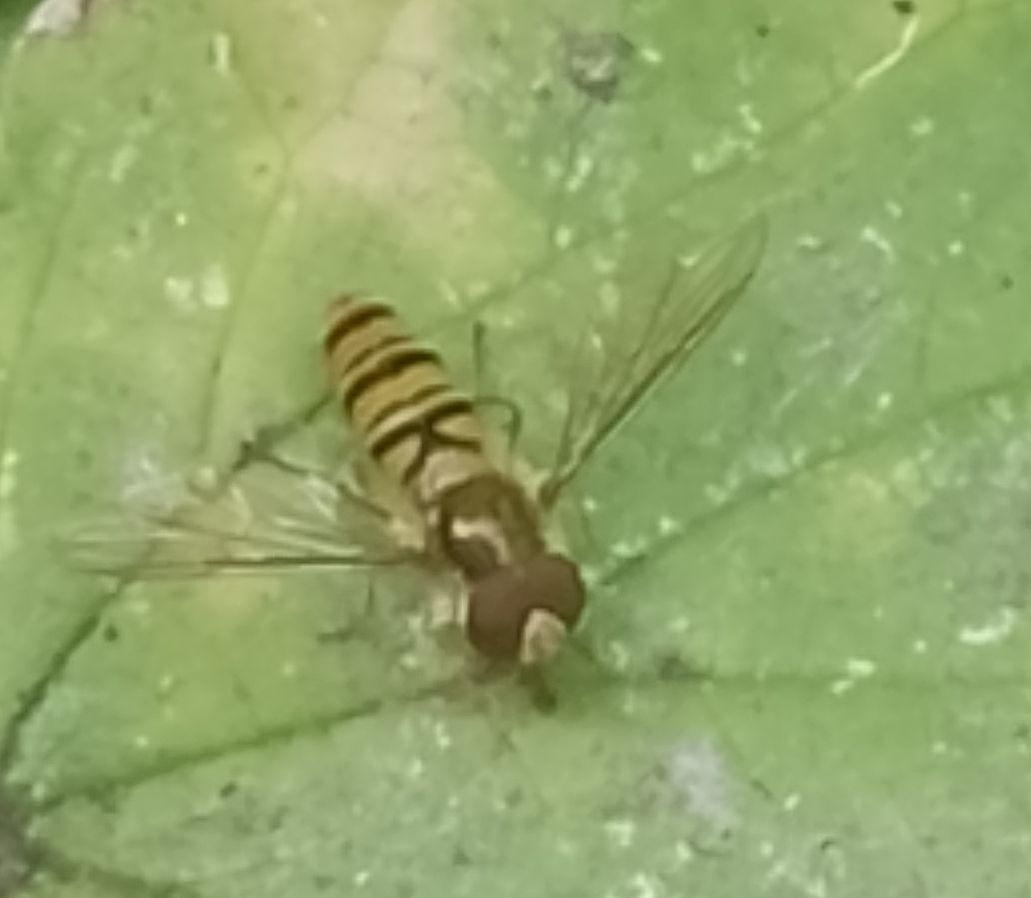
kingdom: Animalia
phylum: Arthropoda
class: Insecta
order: Diptera
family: Syrphidae
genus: Episyrphus
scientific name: Episyrphus balteatus
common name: Marmalade hoverfly
